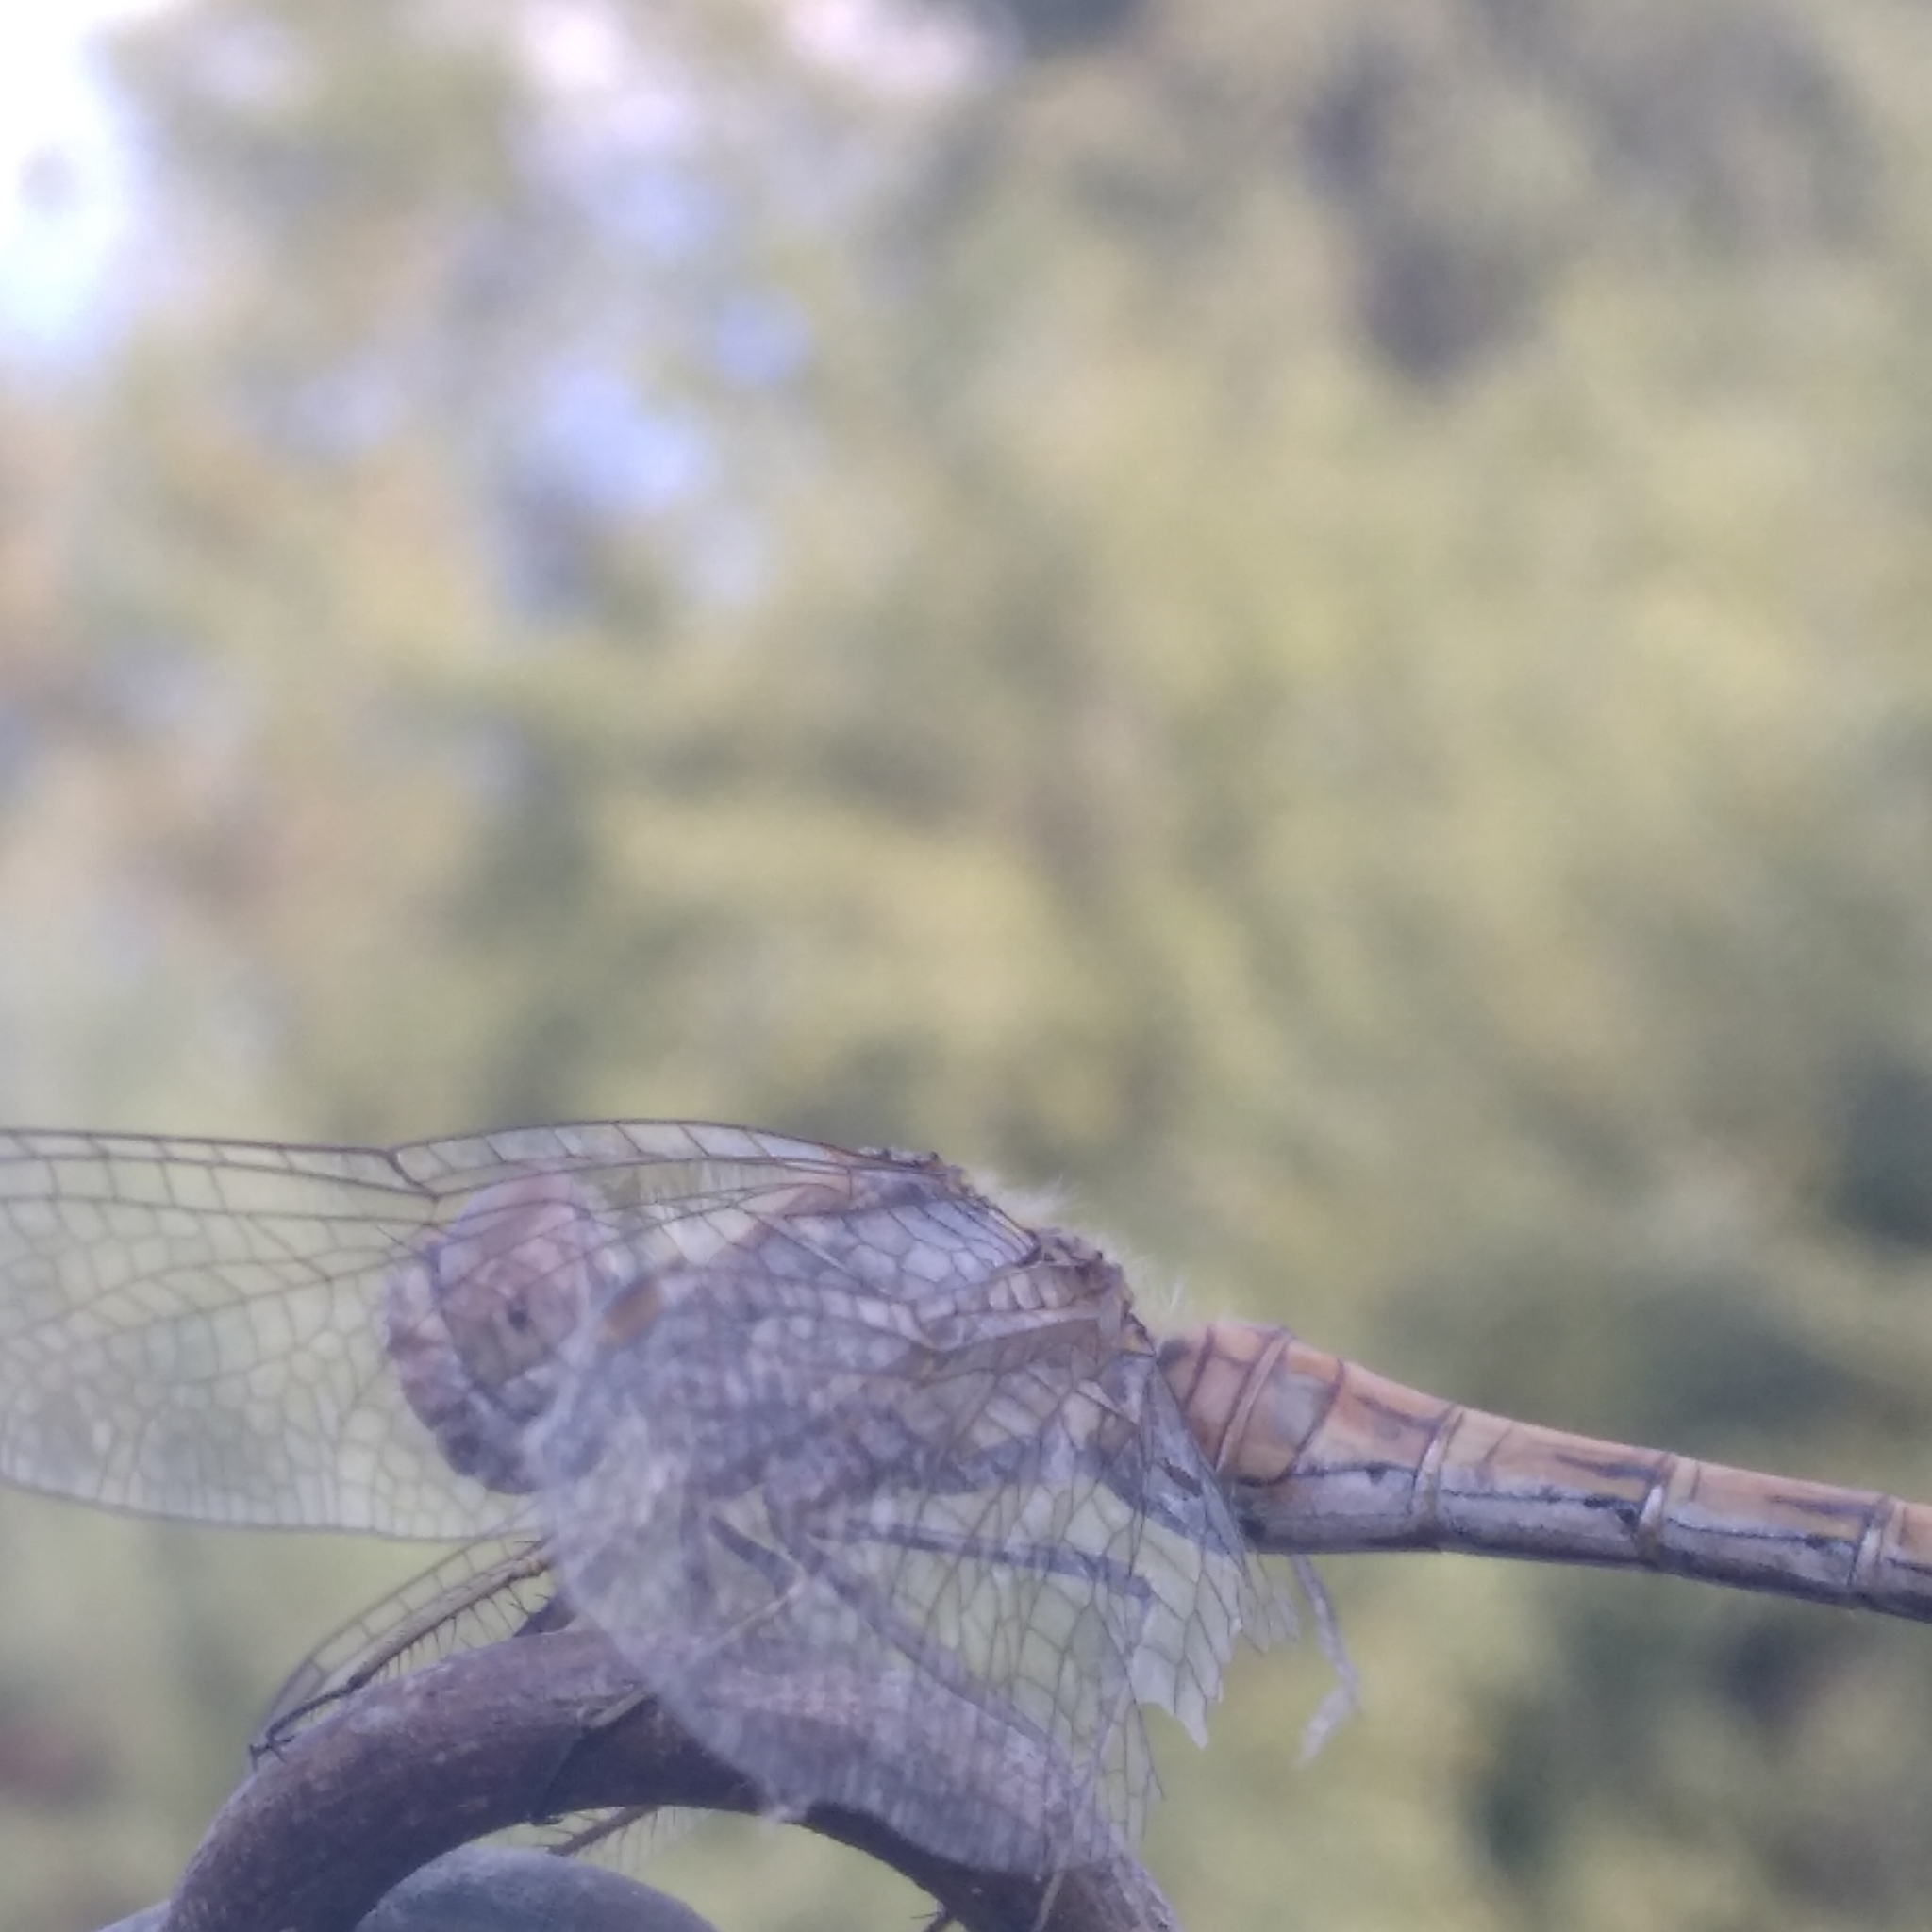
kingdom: Animalia
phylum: Arthropoda
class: Insecta
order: Odonata
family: Libellulidae
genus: Sympetrum
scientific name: Sympetrum sanguineum
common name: Ruddy darter
